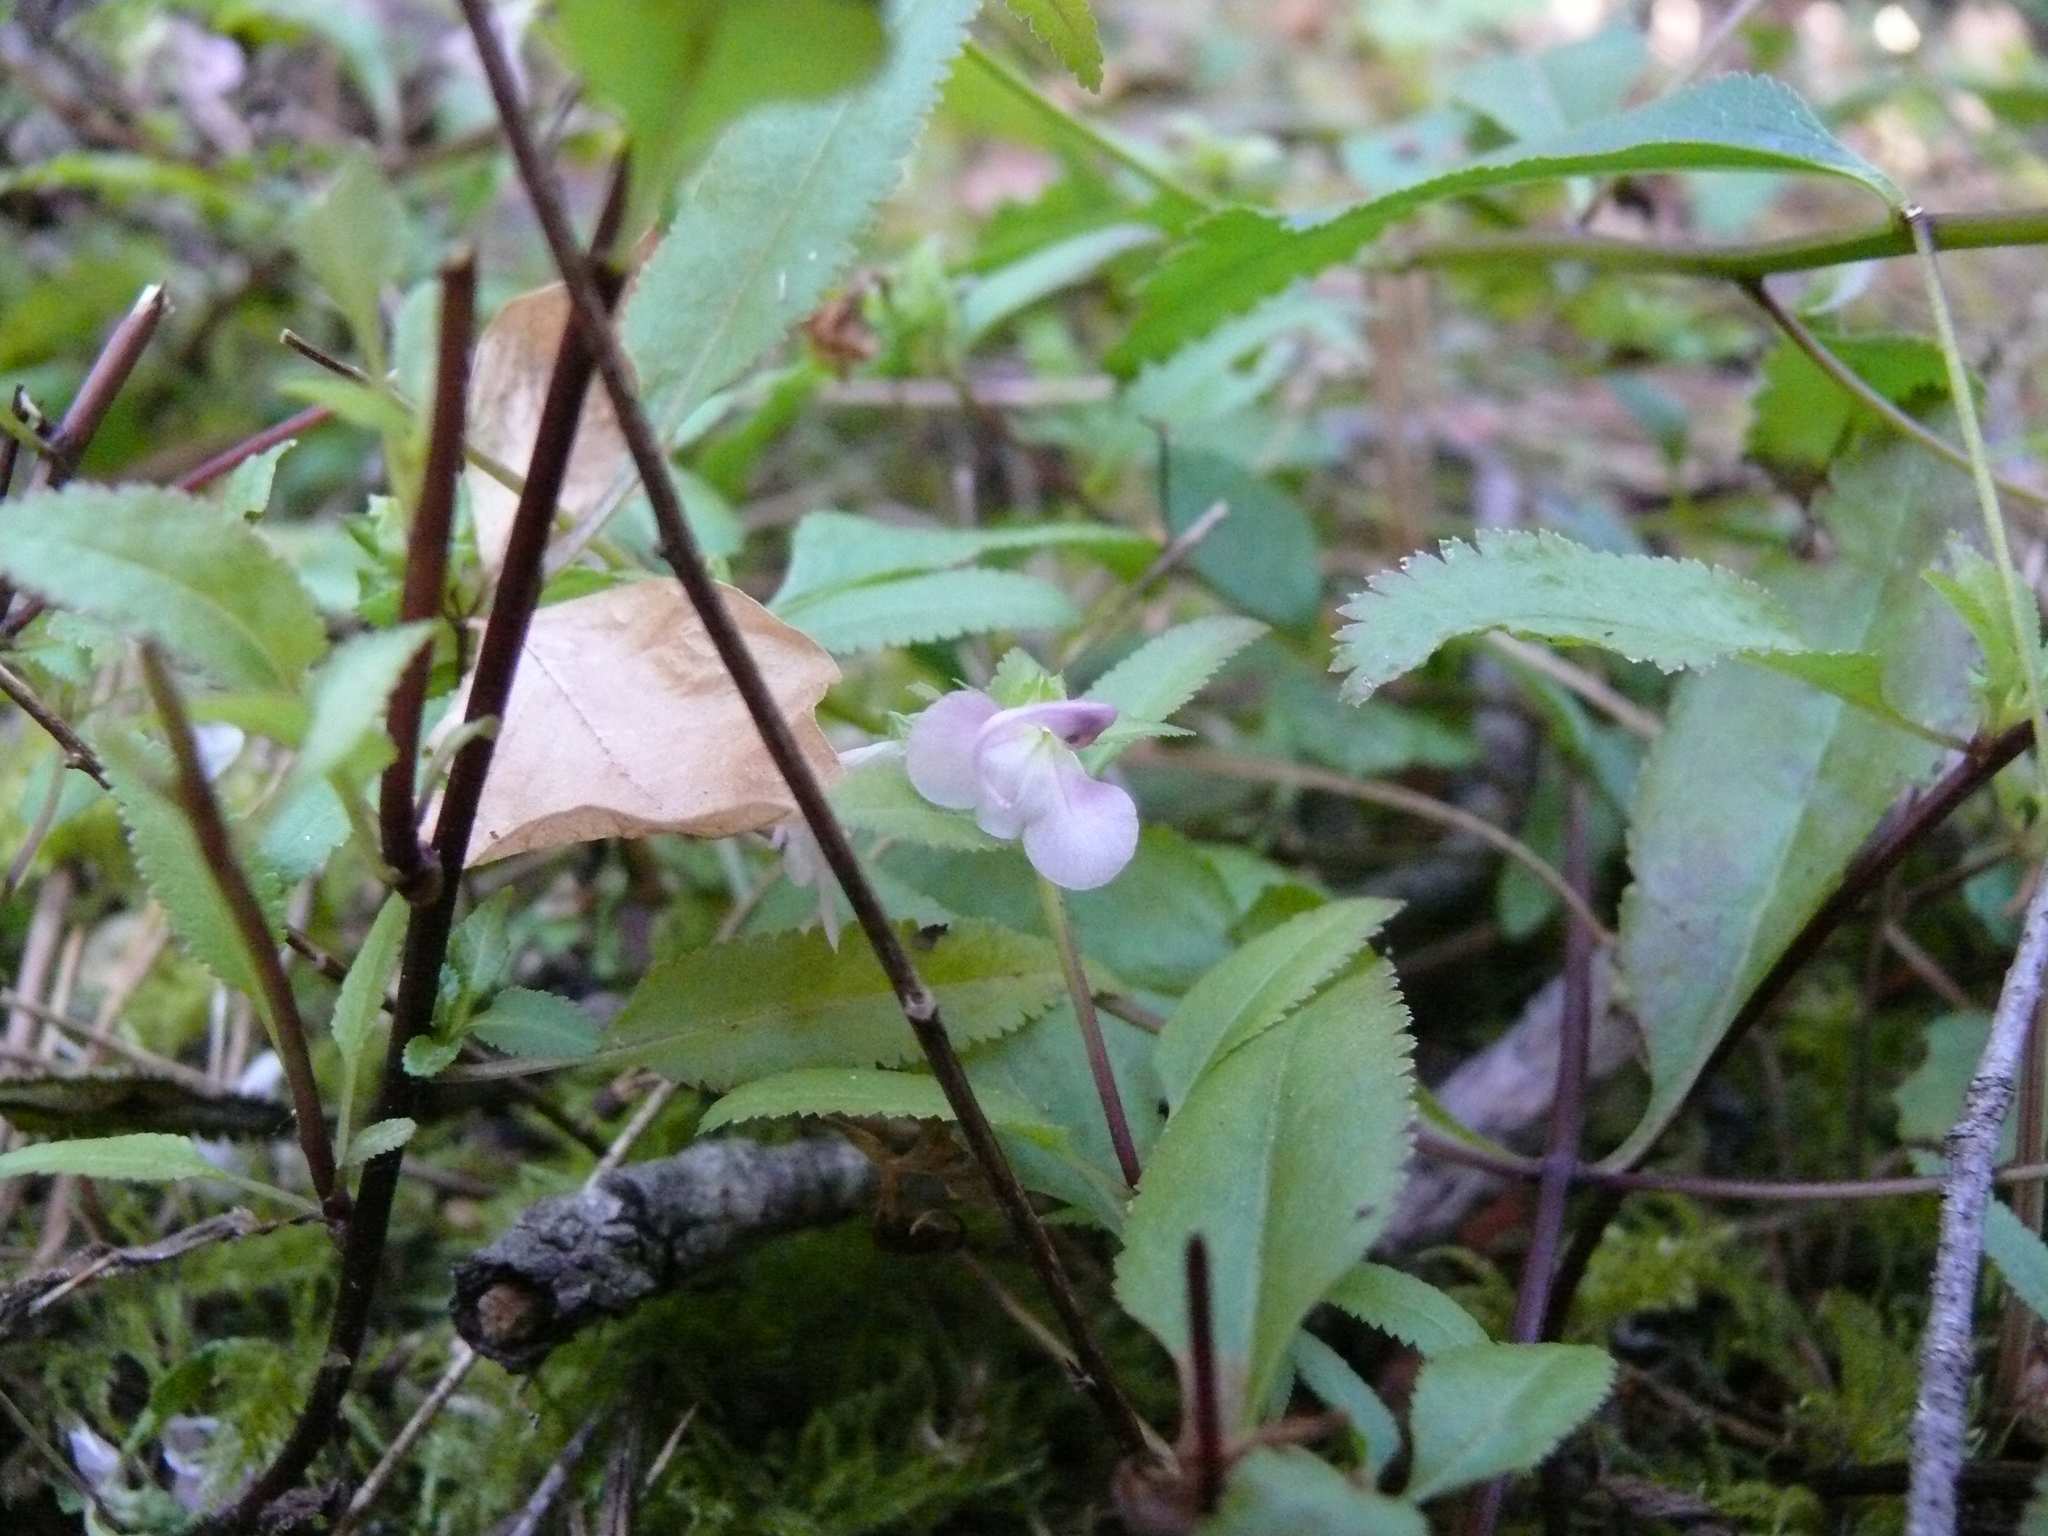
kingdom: Plantae
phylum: Tracheophyta
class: Magnoliopsida
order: Lamiales
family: Orobanchaceae
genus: Pedicularis
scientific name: Pedicularis racemosa
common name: Leafy lousewort
